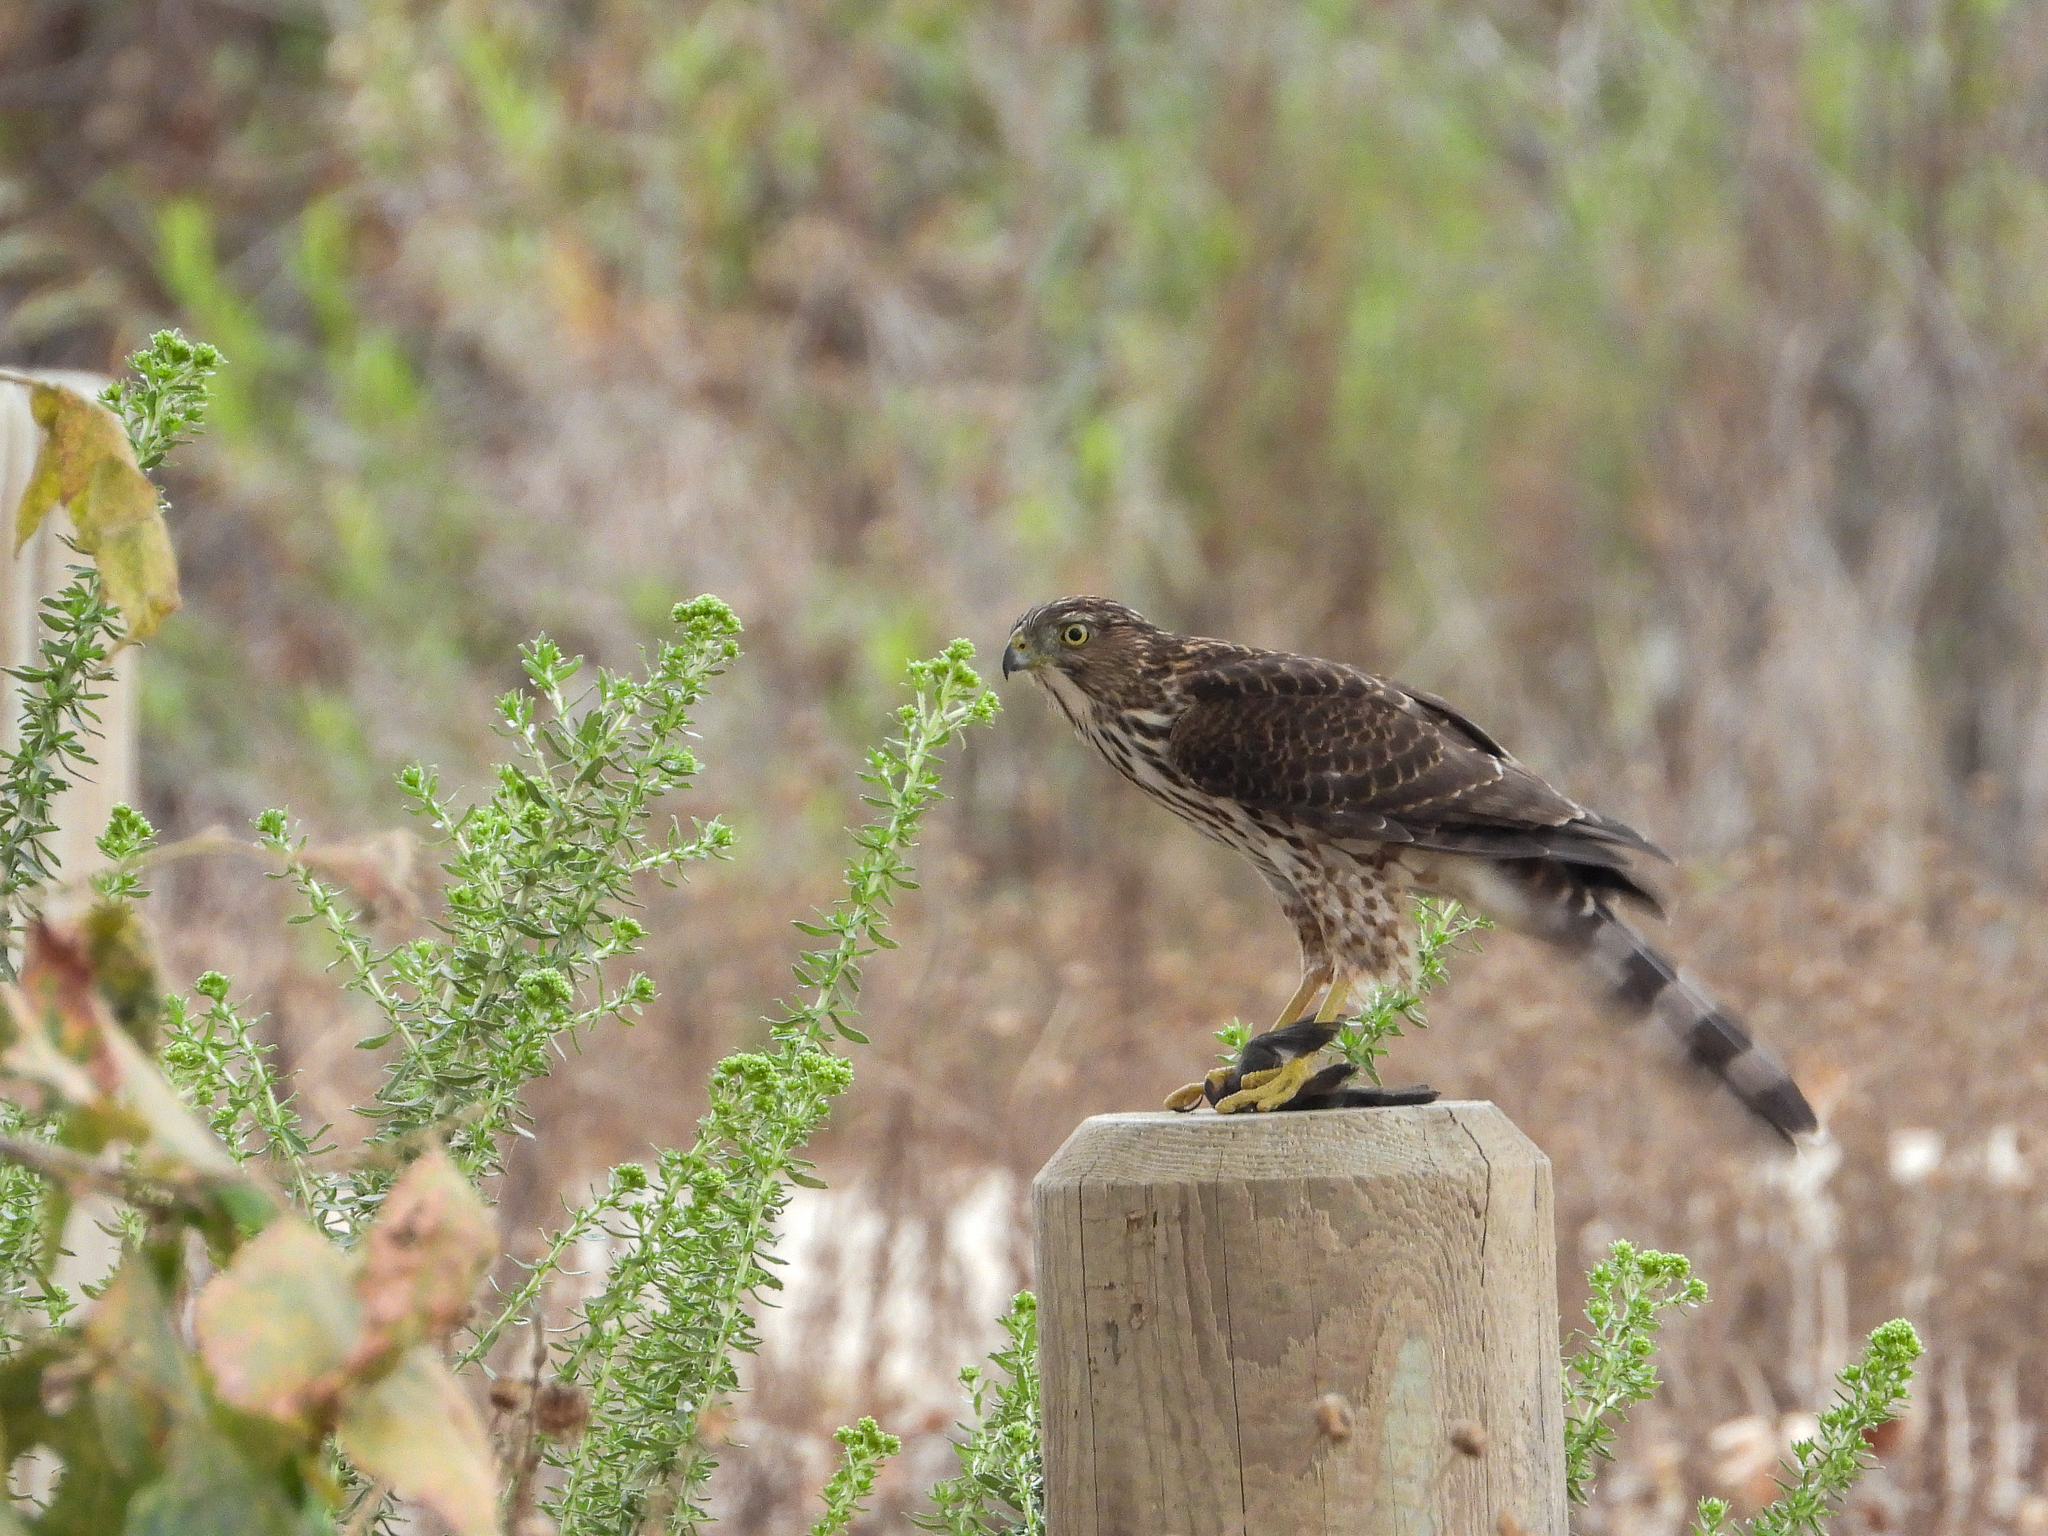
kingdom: Animalia
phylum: Chordata
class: Aves
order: Accipitriformes
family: Accipitridae
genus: Accipiter
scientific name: Accipiter cooperii
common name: Cooper's hawk
